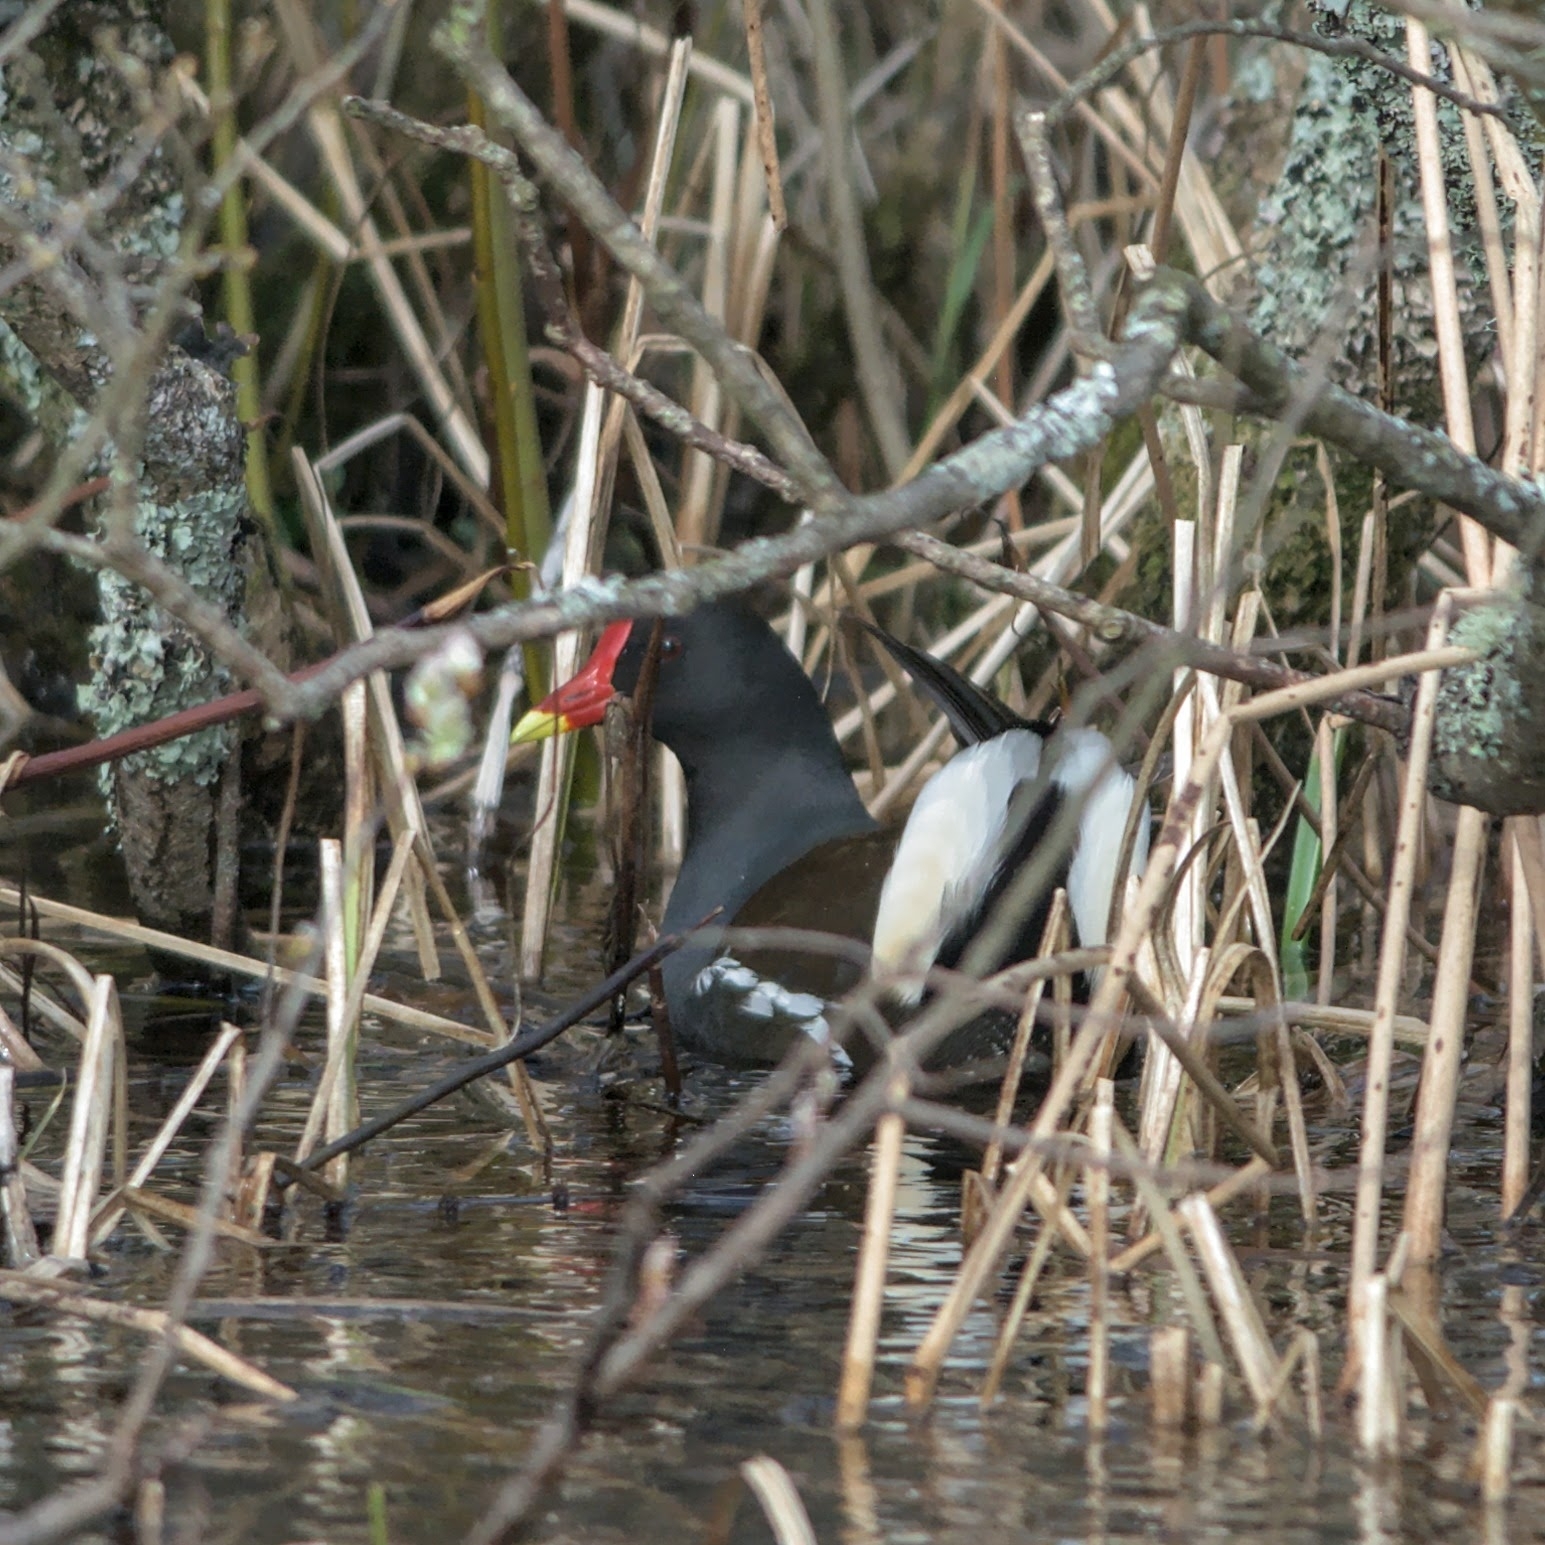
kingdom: Animalia
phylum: Chordata
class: Aves
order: Gruiformes
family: Rallidae
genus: Gallinula
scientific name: Gallinula chloropus
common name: Common moorhen
